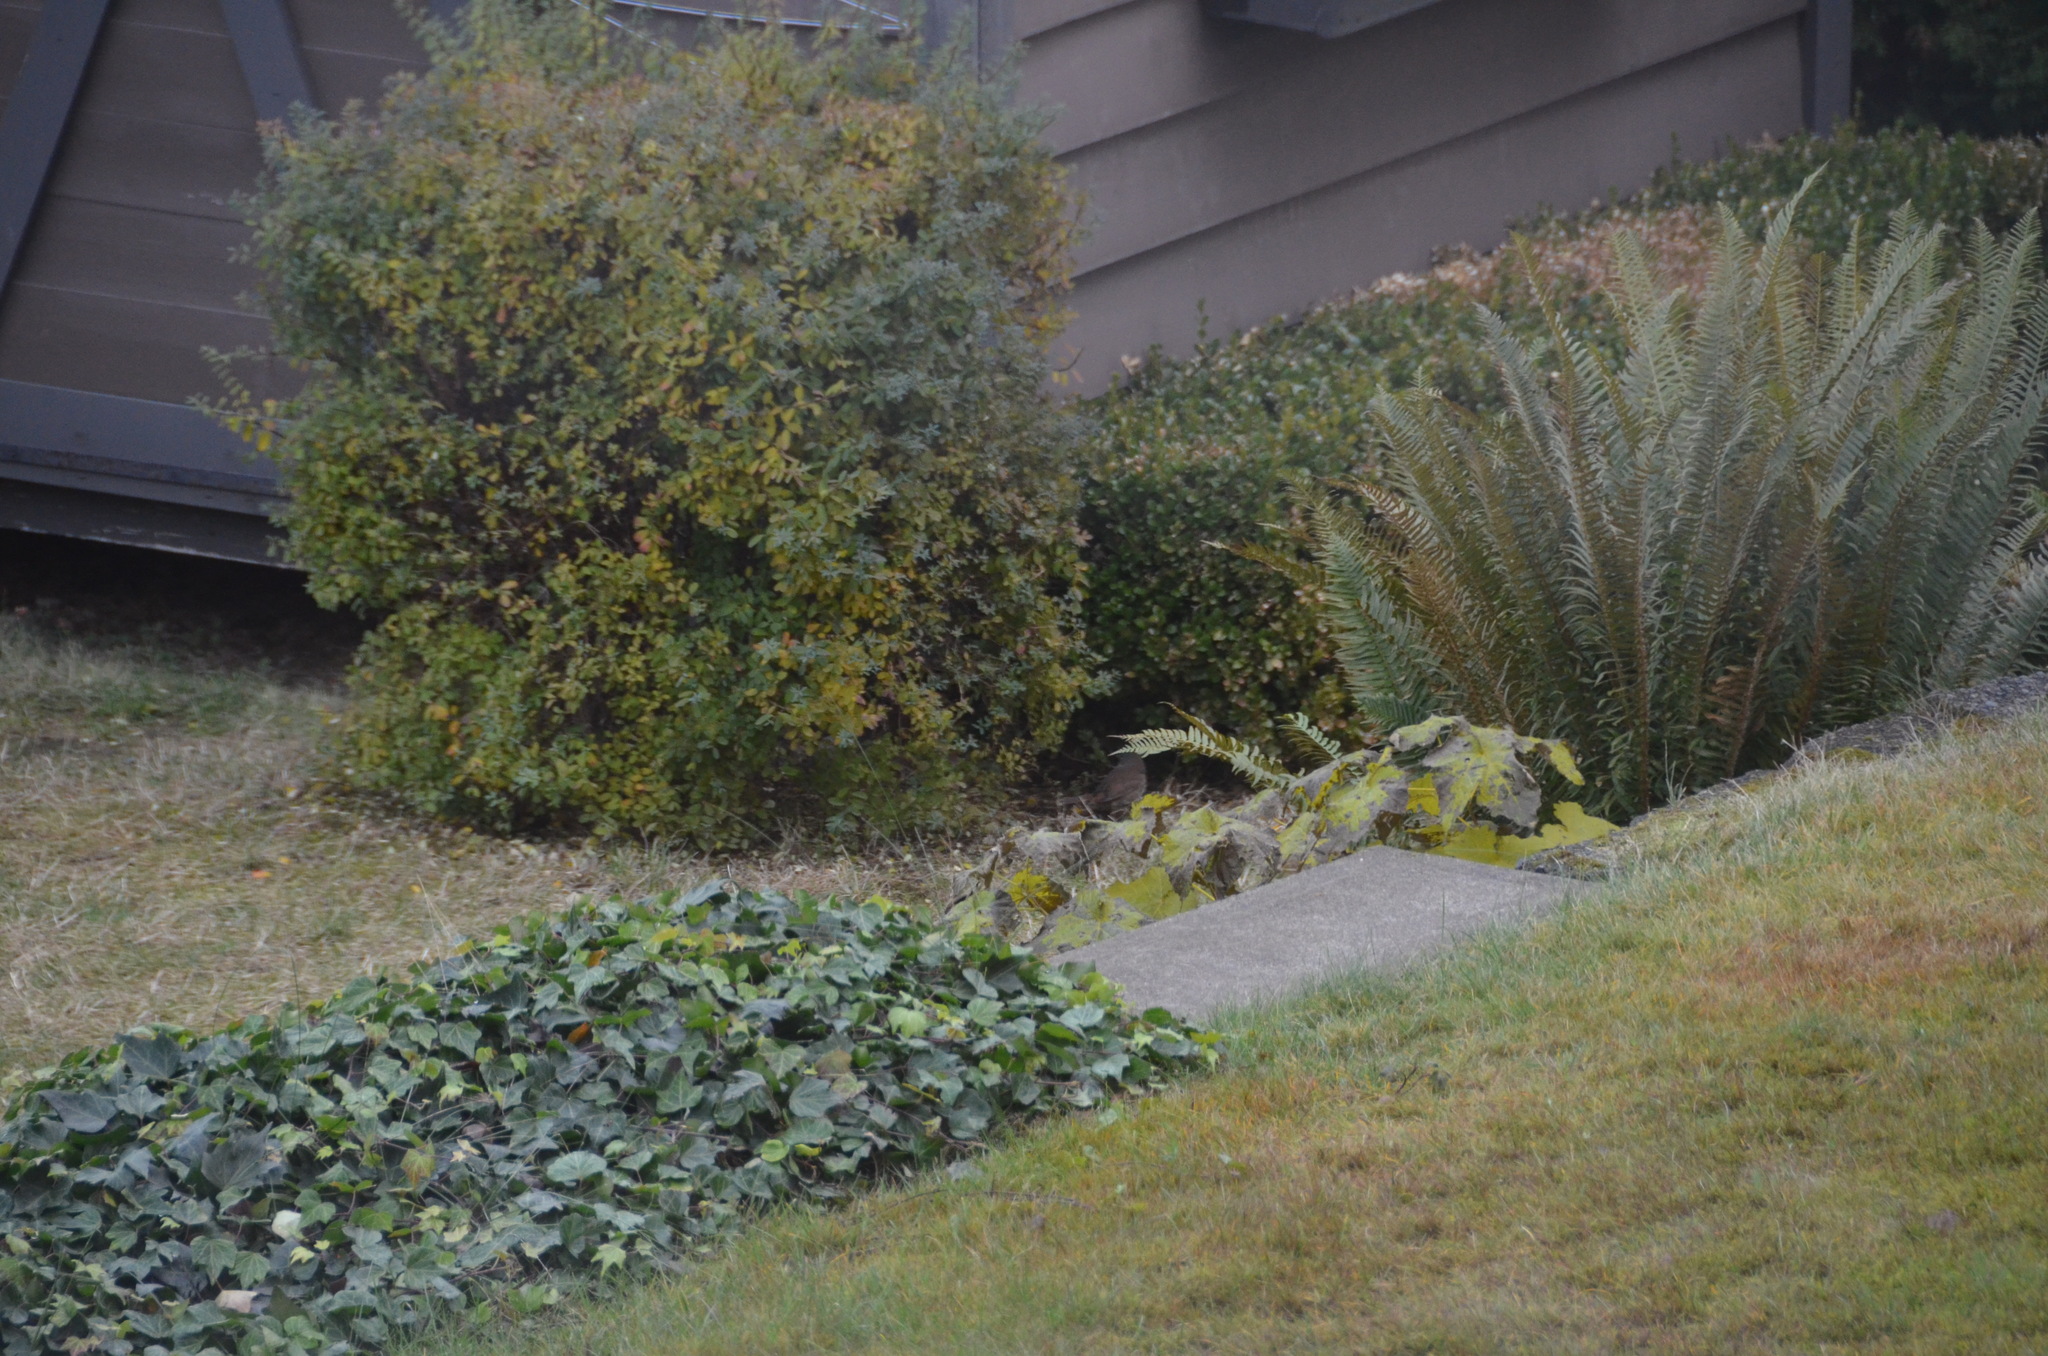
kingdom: Animalia
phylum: Chordata
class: Aves
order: Passeriformes
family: Passerellidae
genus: Passerella
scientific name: Passerella iliaca
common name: Fox sparrow
